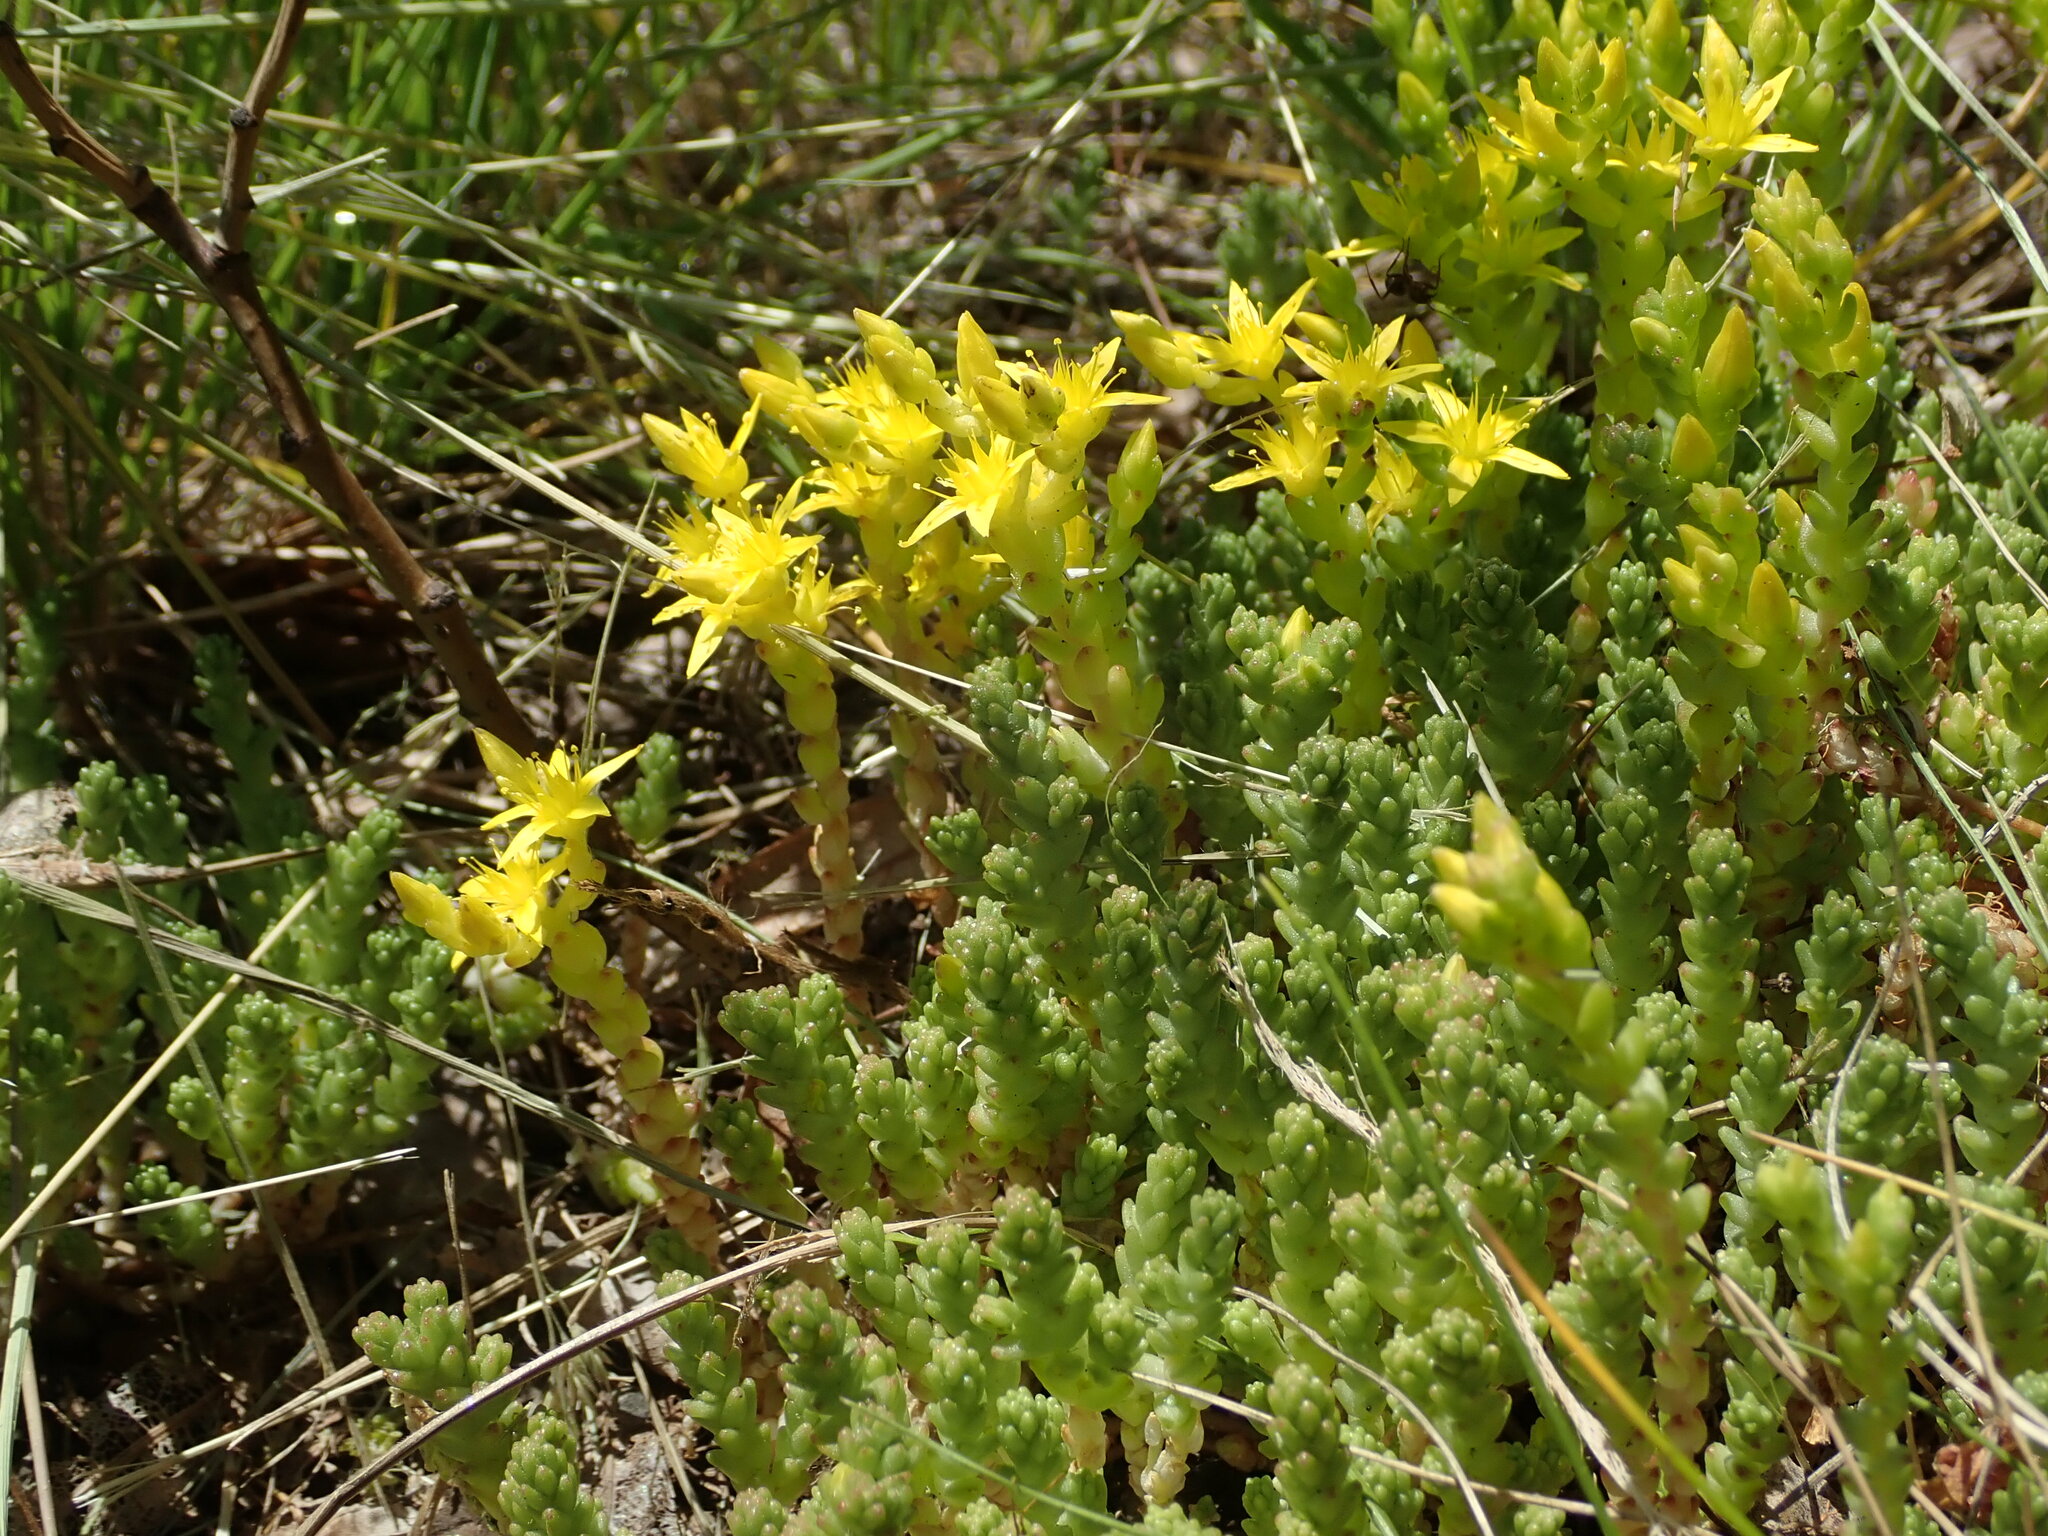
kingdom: Plantae
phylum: Tracheophyta
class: Magnoliopsida
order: Saxifragales
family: Crassulaceae
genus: Sedum
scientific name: Sedum acre
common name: Biting stonecrop
